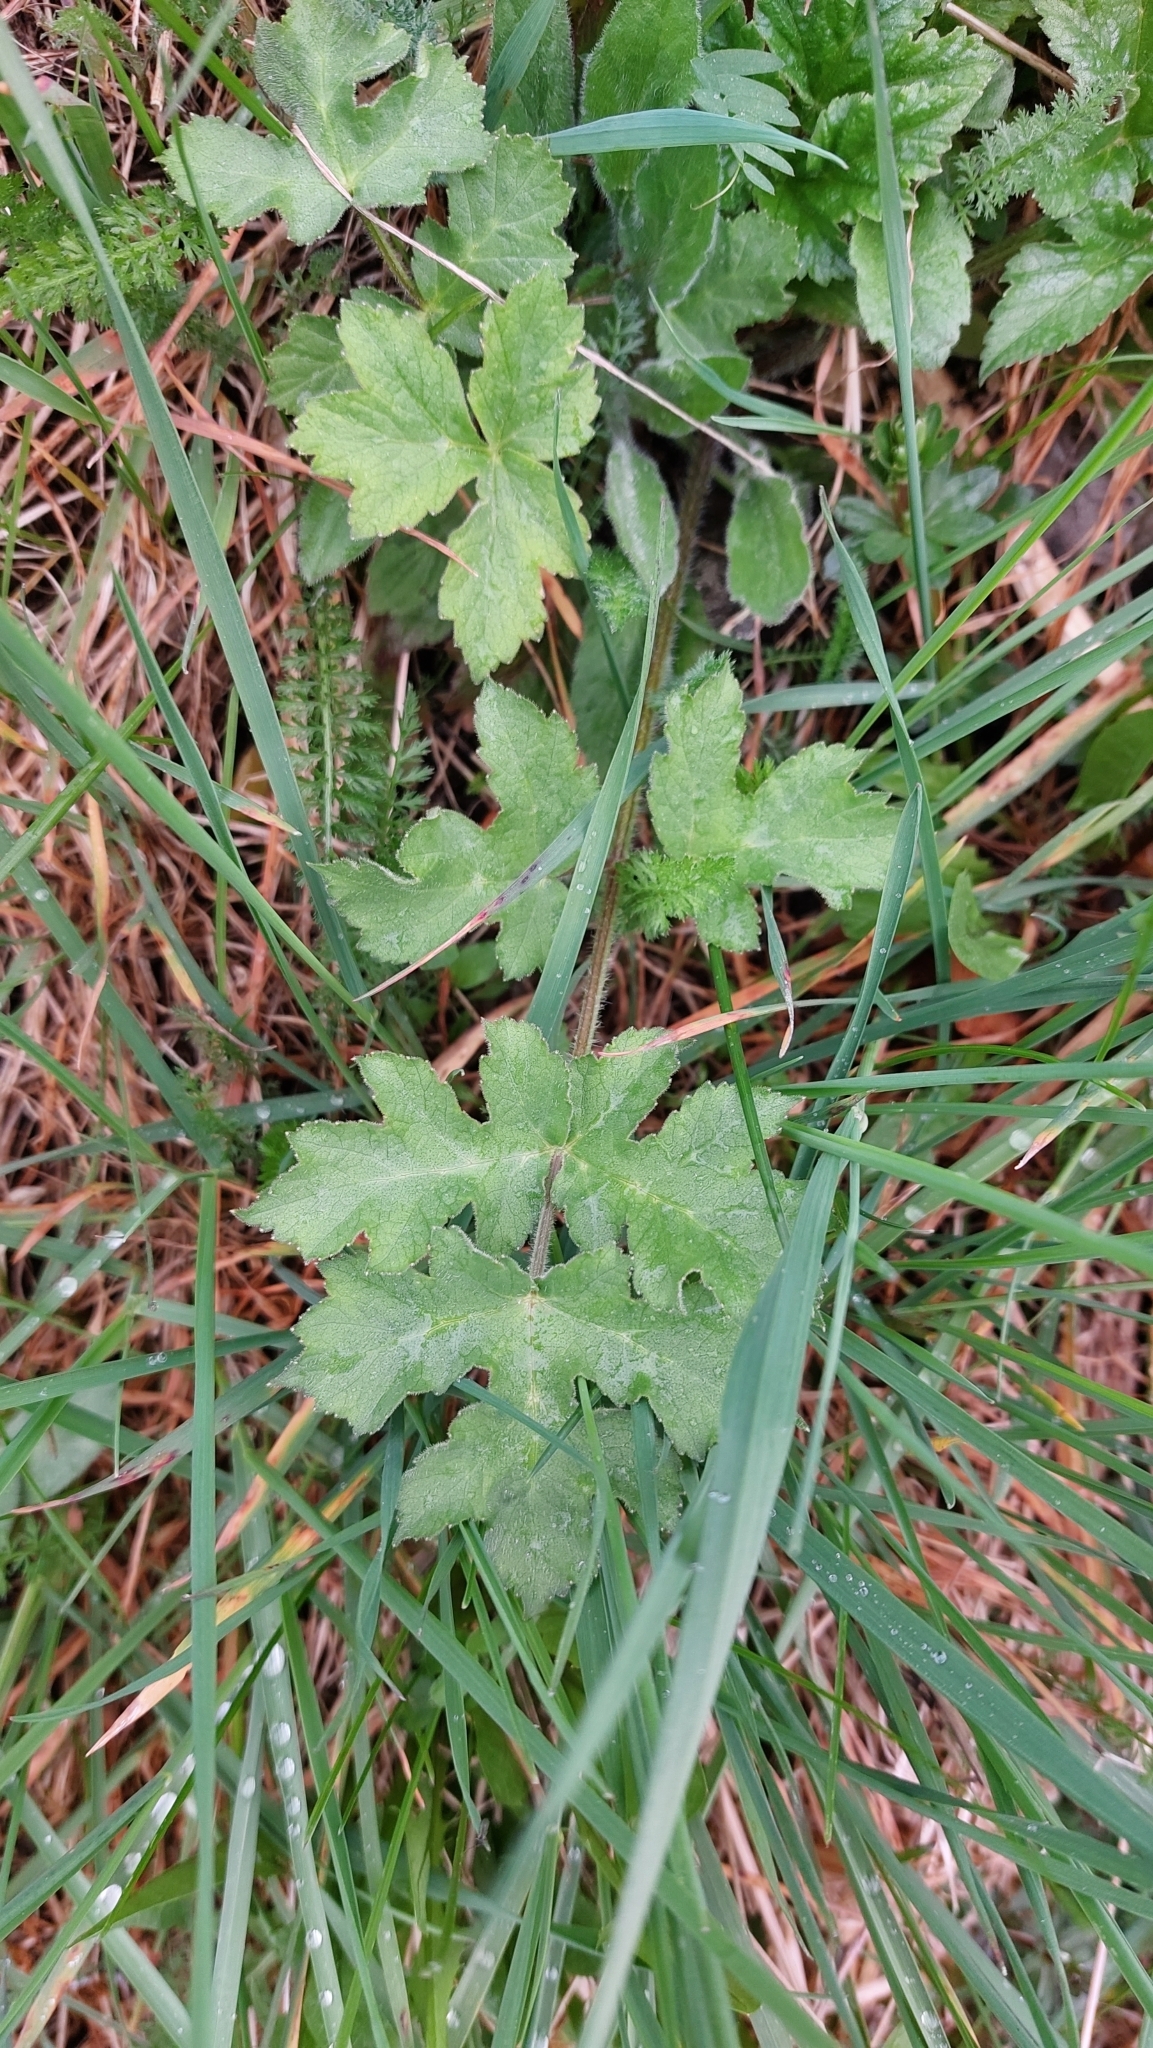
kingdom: Plantae
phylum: Tracheophyta
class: Magnoliopsida
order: Apiales
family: Apiaceae
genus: Heracleum
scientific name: Heracleum sphondylium
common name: Hogweed
